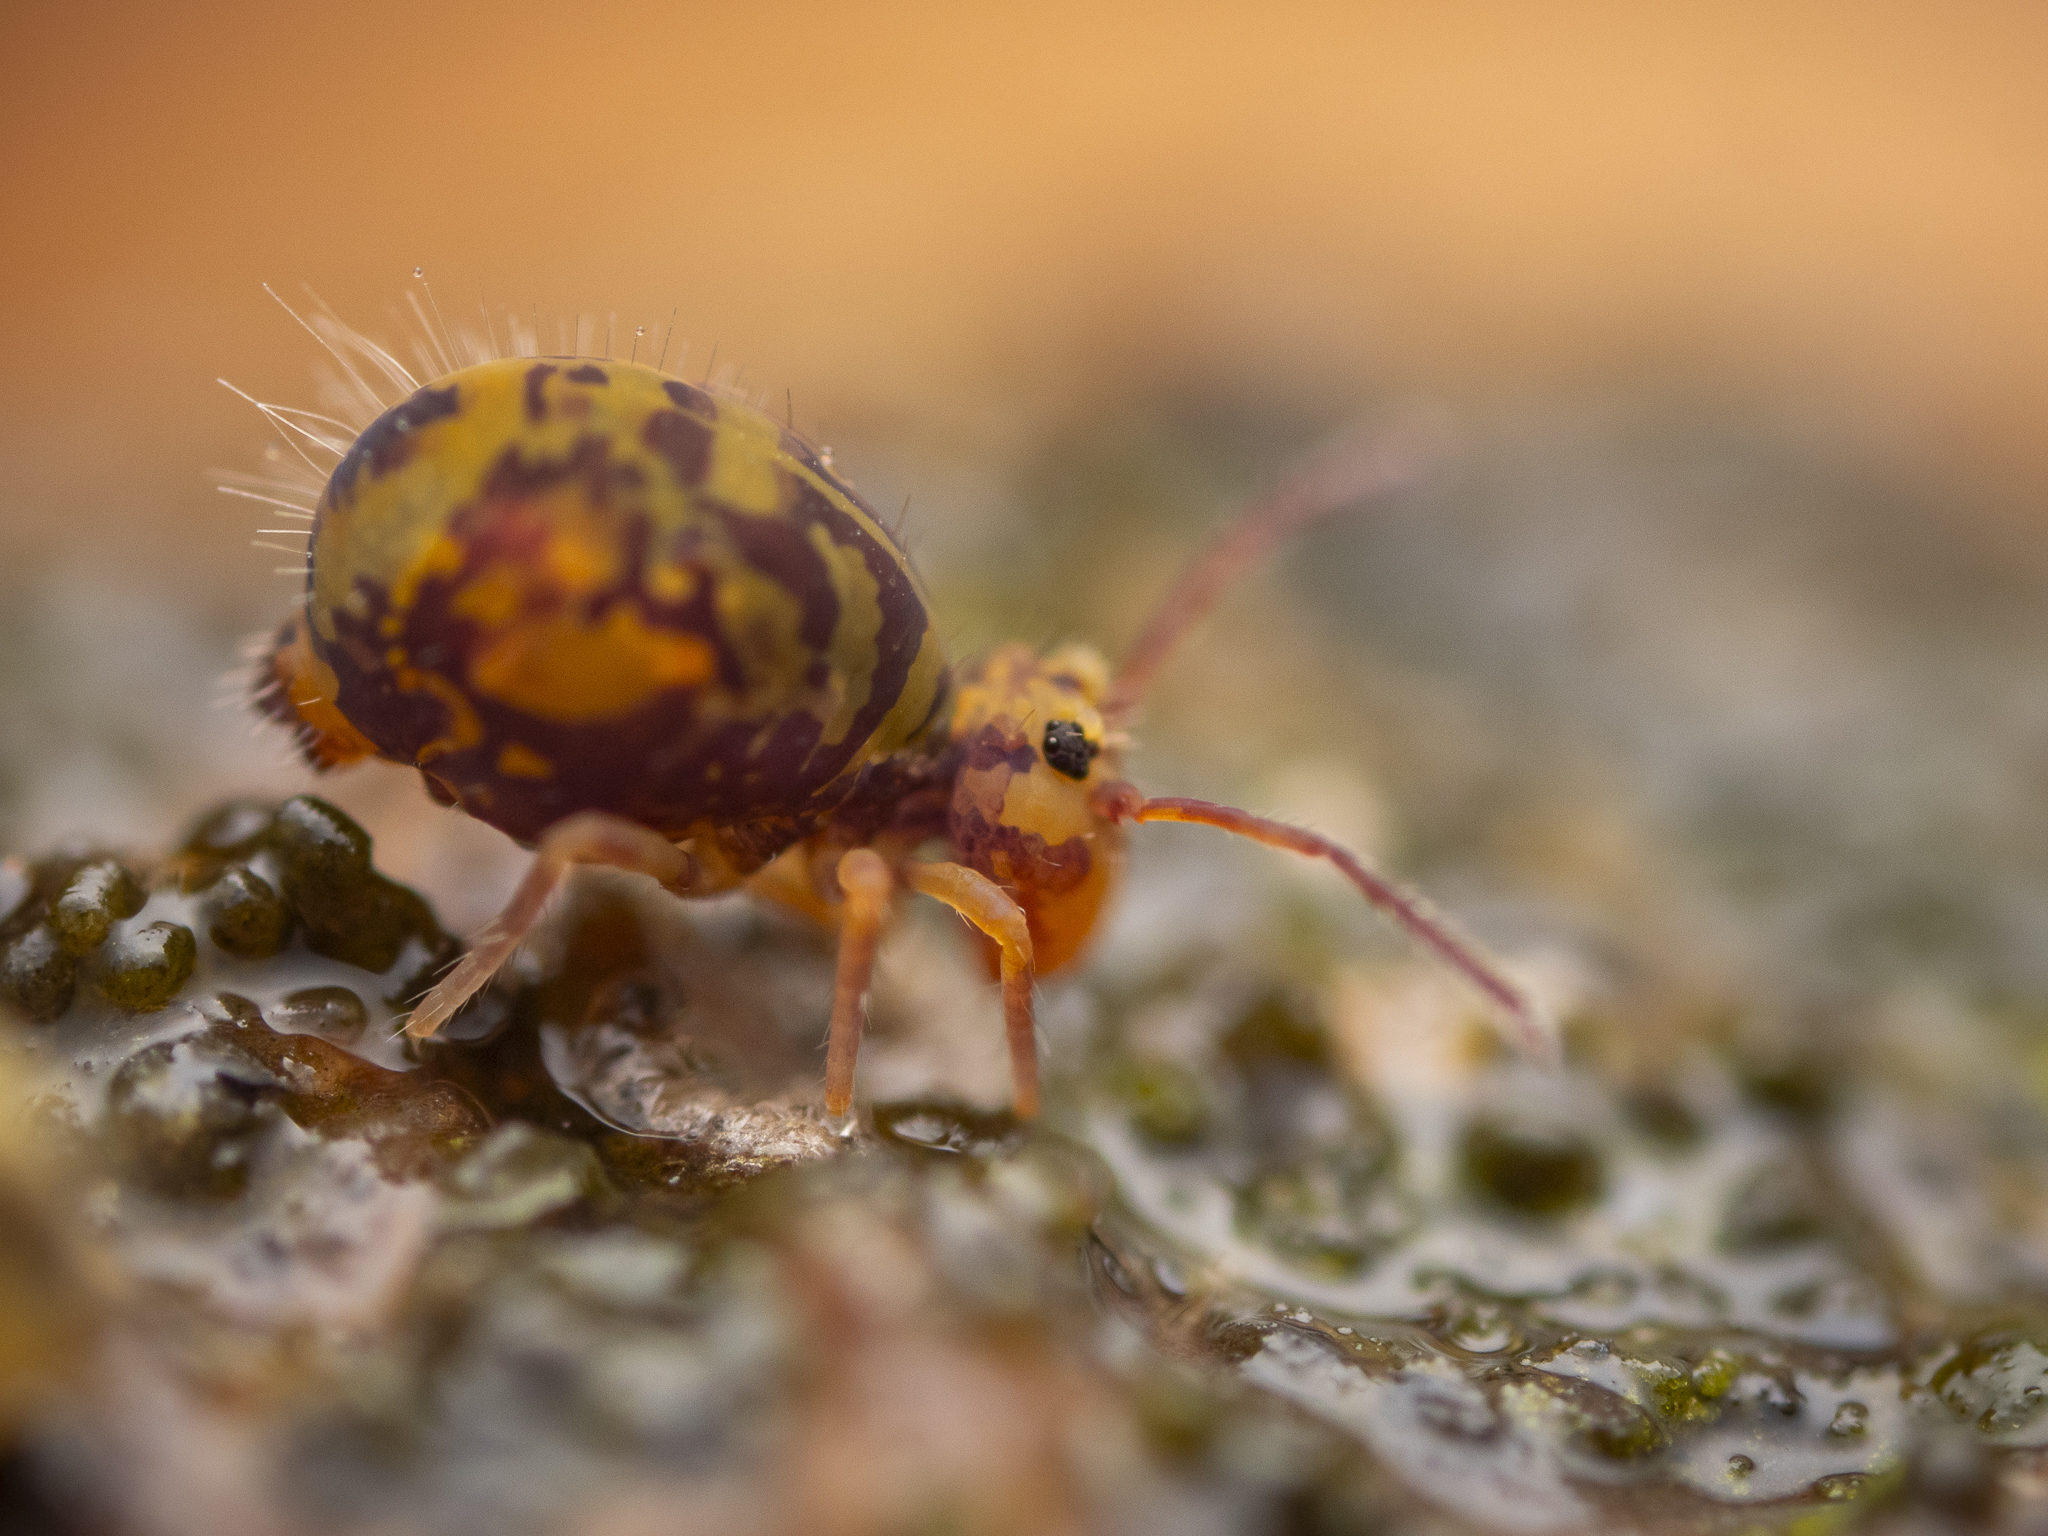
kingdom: Animalia
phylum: Arthropoda
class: Collembola
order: Symphypleona
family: Dicyrtomidae
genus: Dicyrtomina
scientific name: Dicyrtomina ornata
